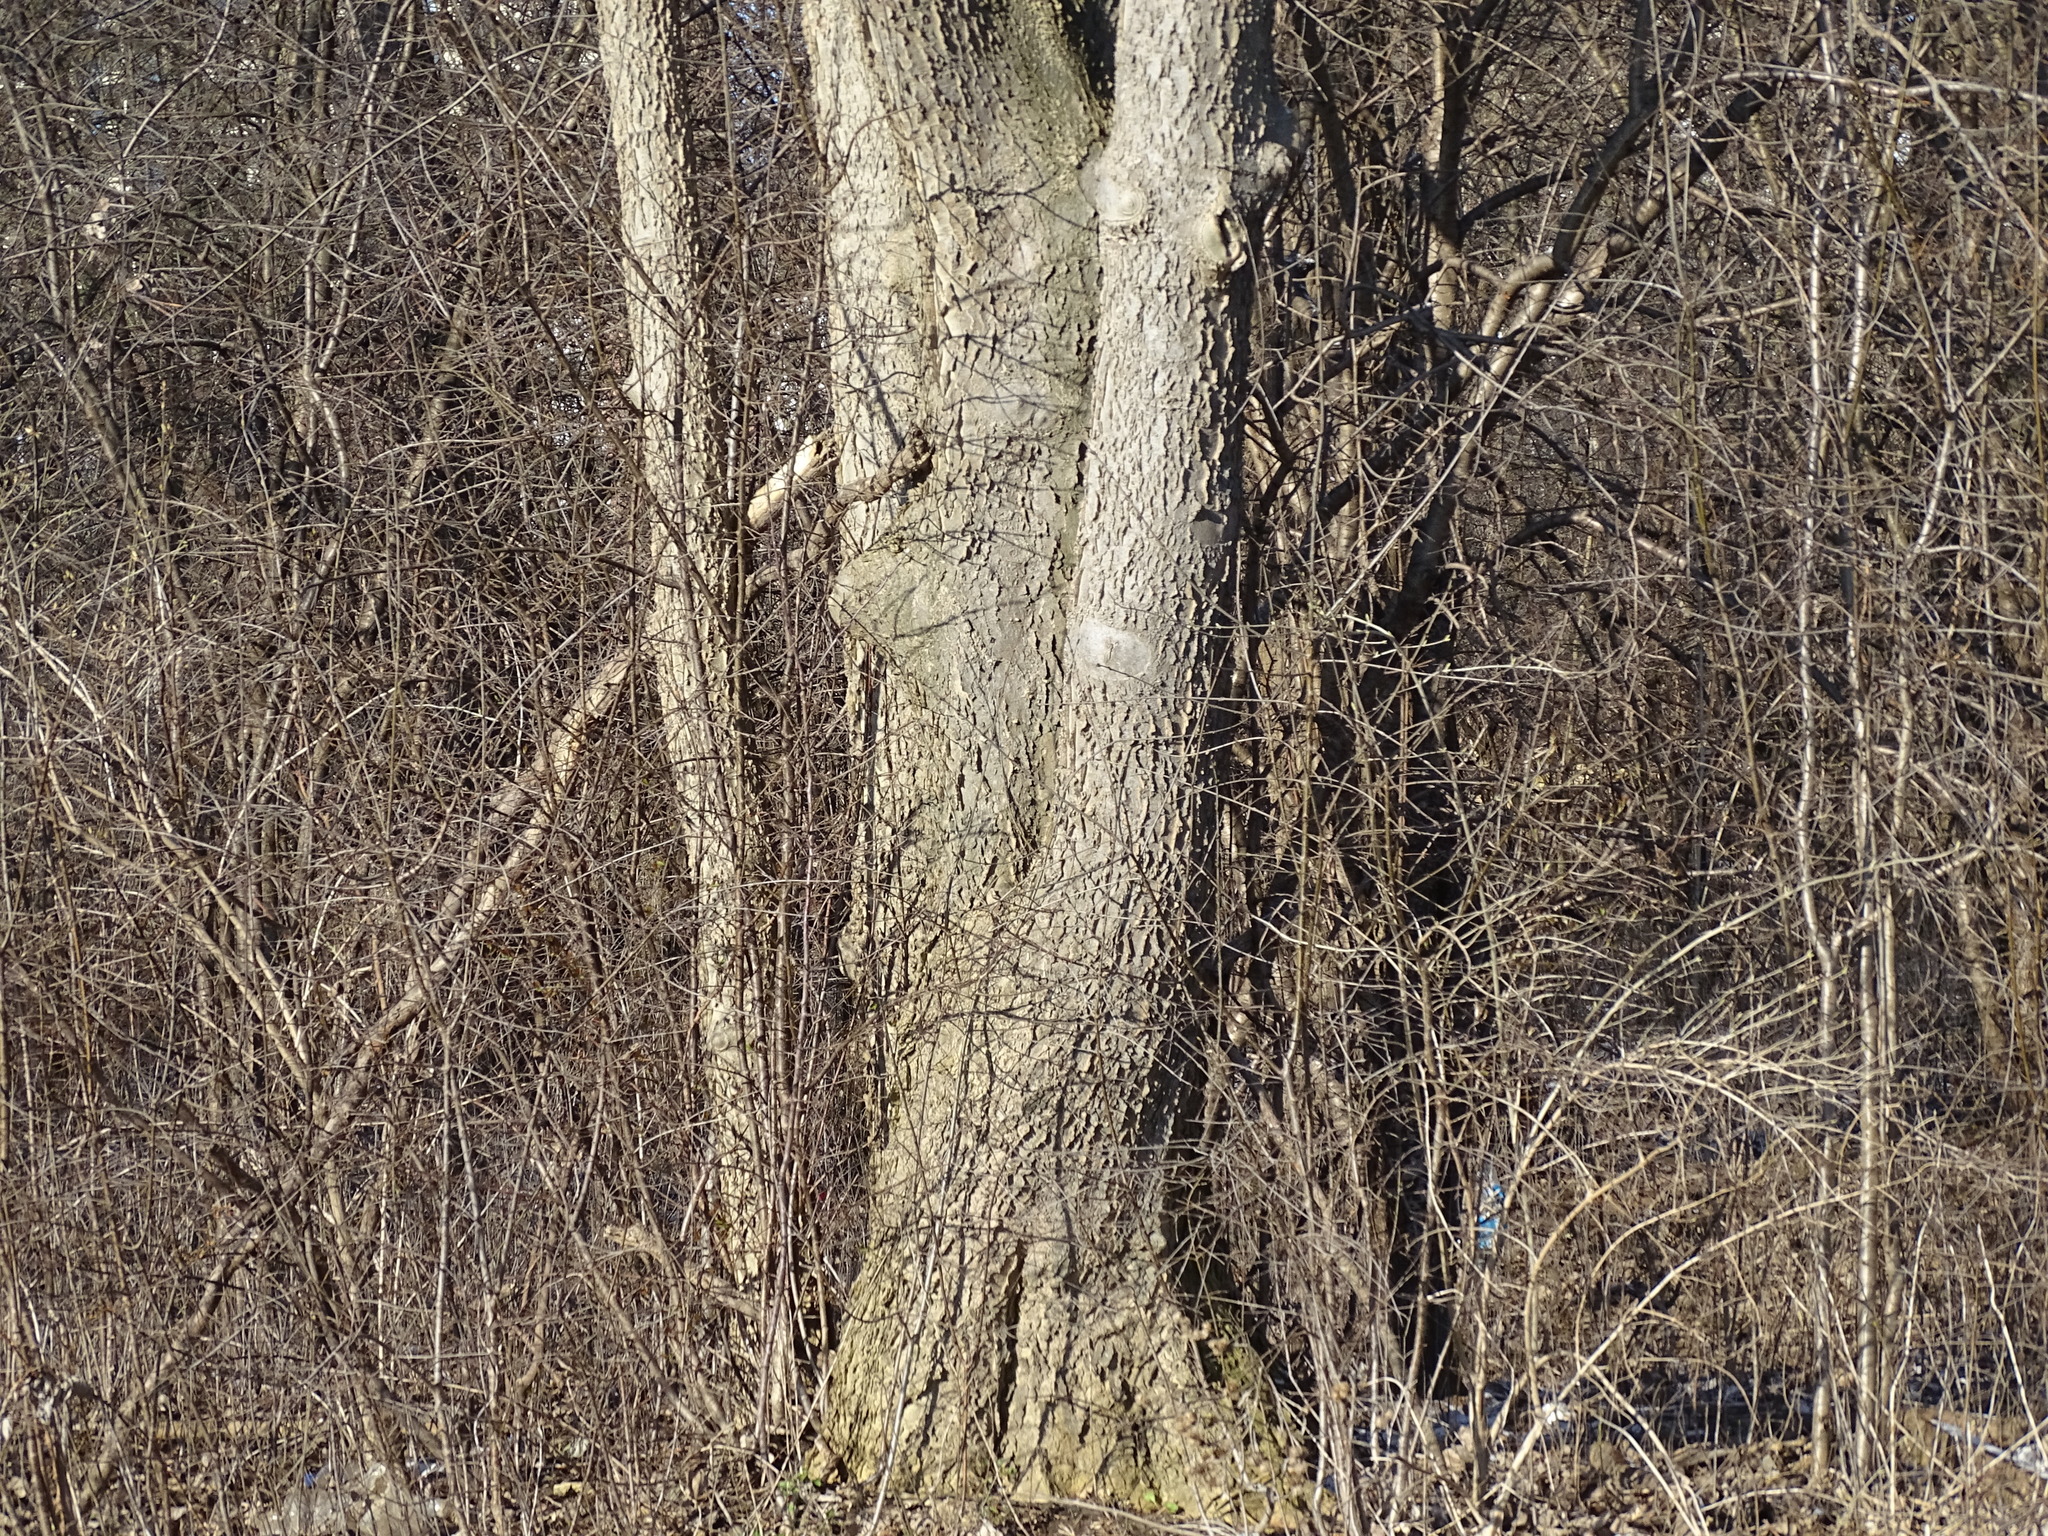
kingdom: Plantae
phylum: Tracheophyta
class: Magnoliopsida
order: Rosales
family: Cannabaceae
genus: Celtis
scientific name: Celtis occidentalis
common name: Common hackberry
